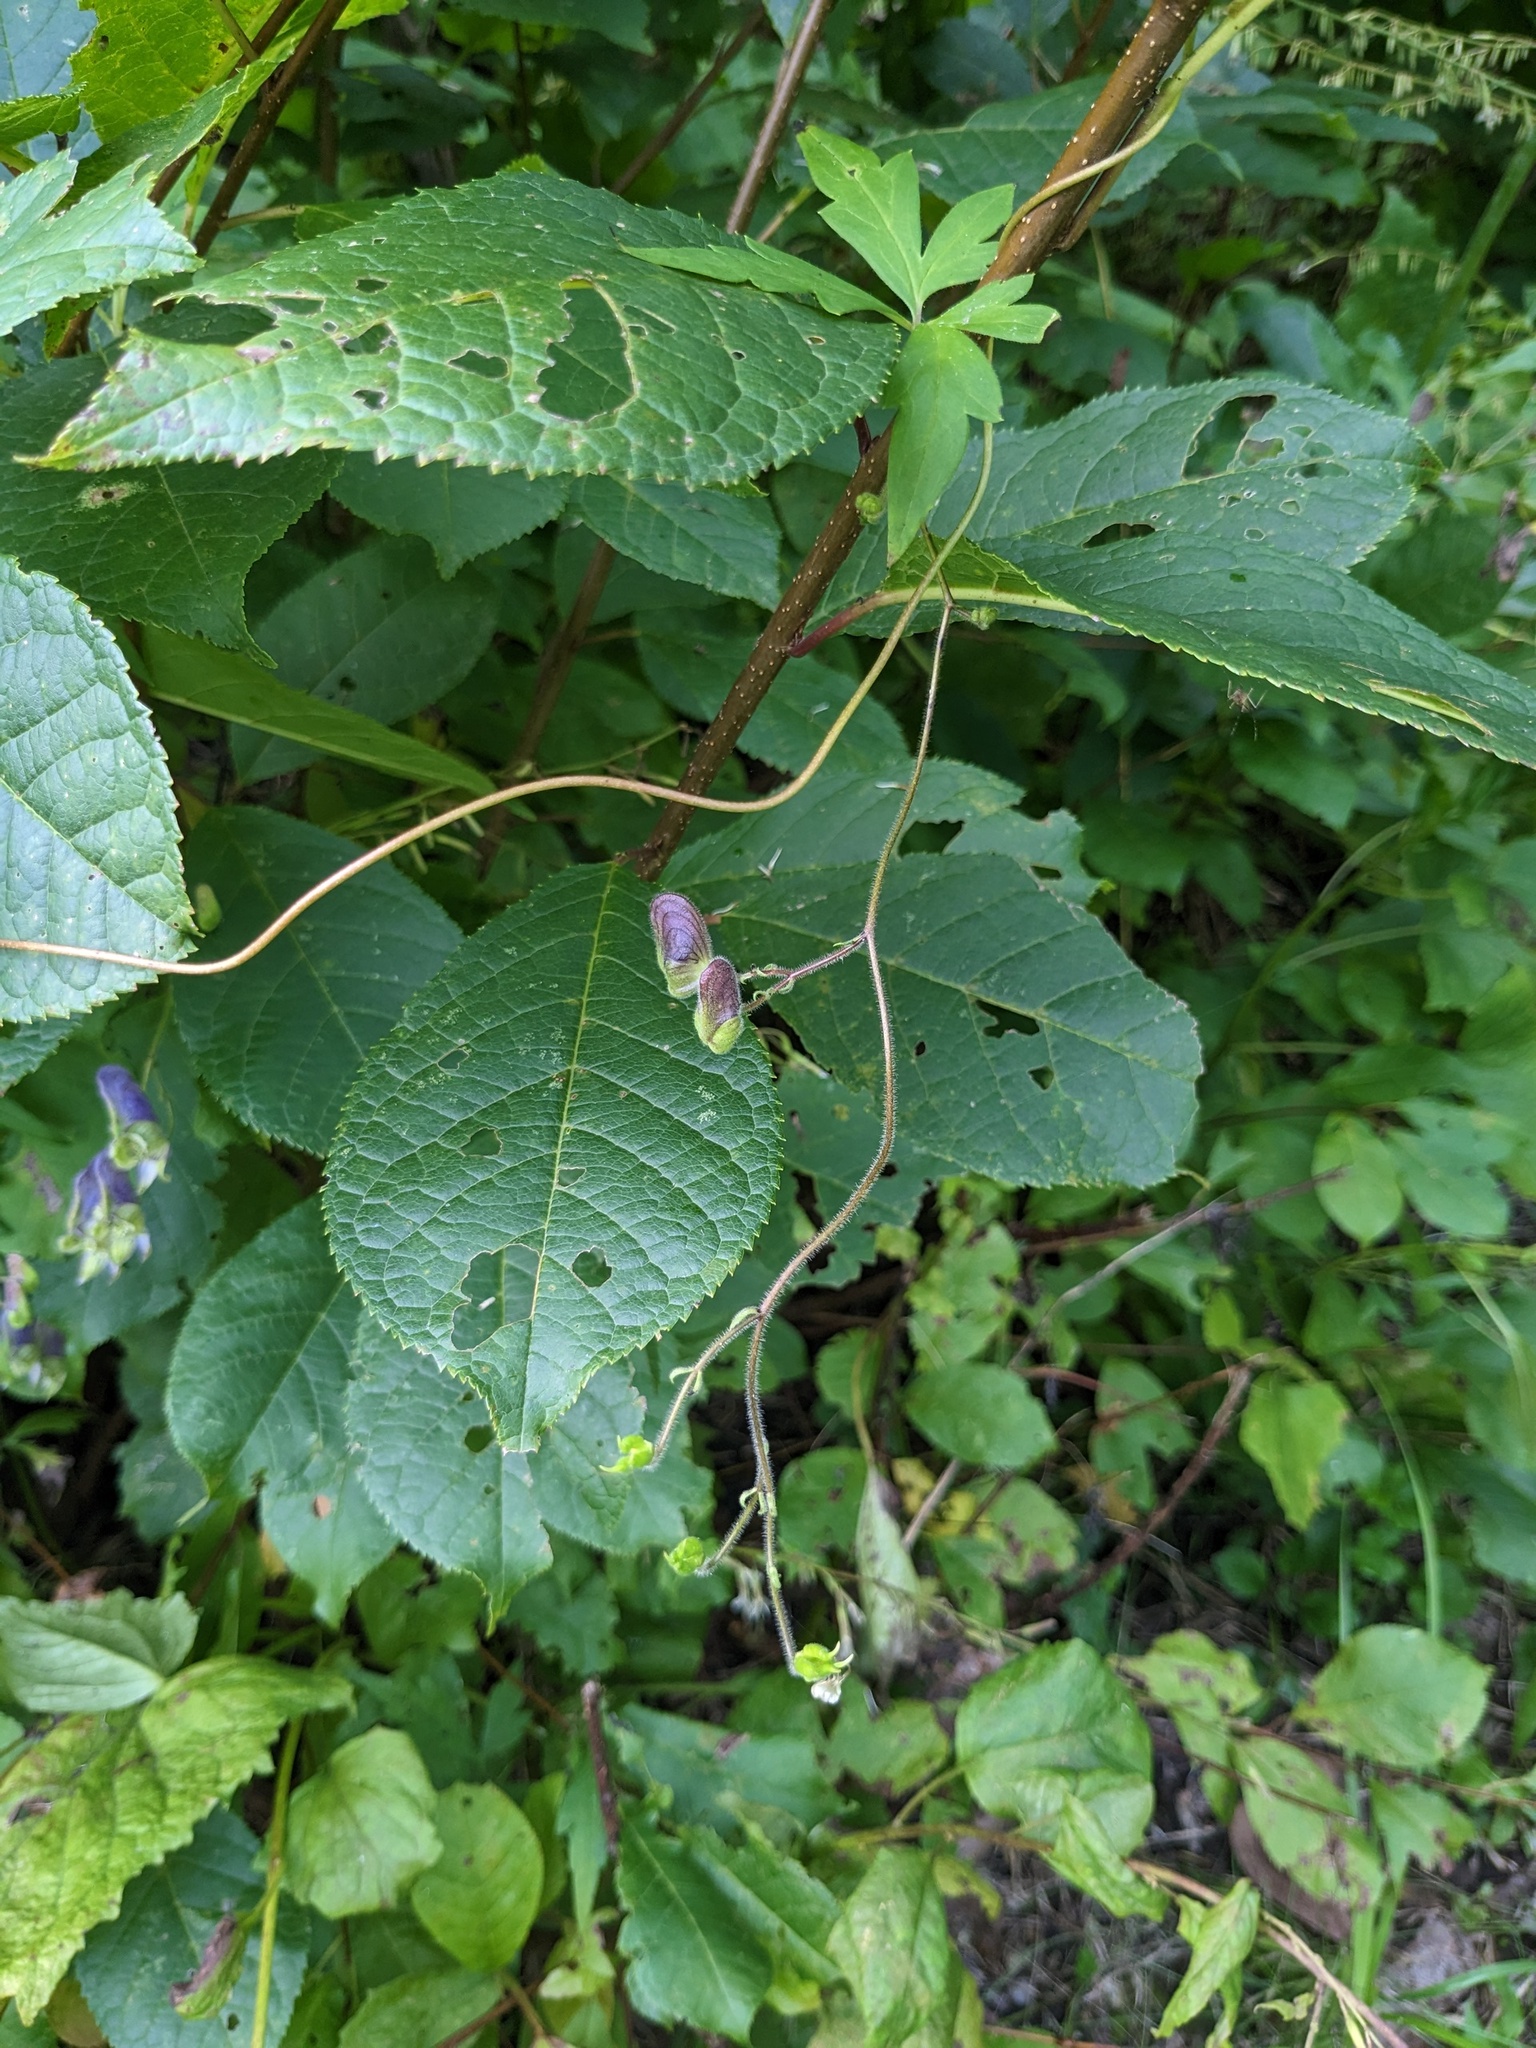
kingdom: Plantae
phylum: Tracheophyta
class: Magnoliopsida
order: Ranunculales
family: Ranunculaceae
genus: Aconitum
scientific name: Aconitum stoloniferum
